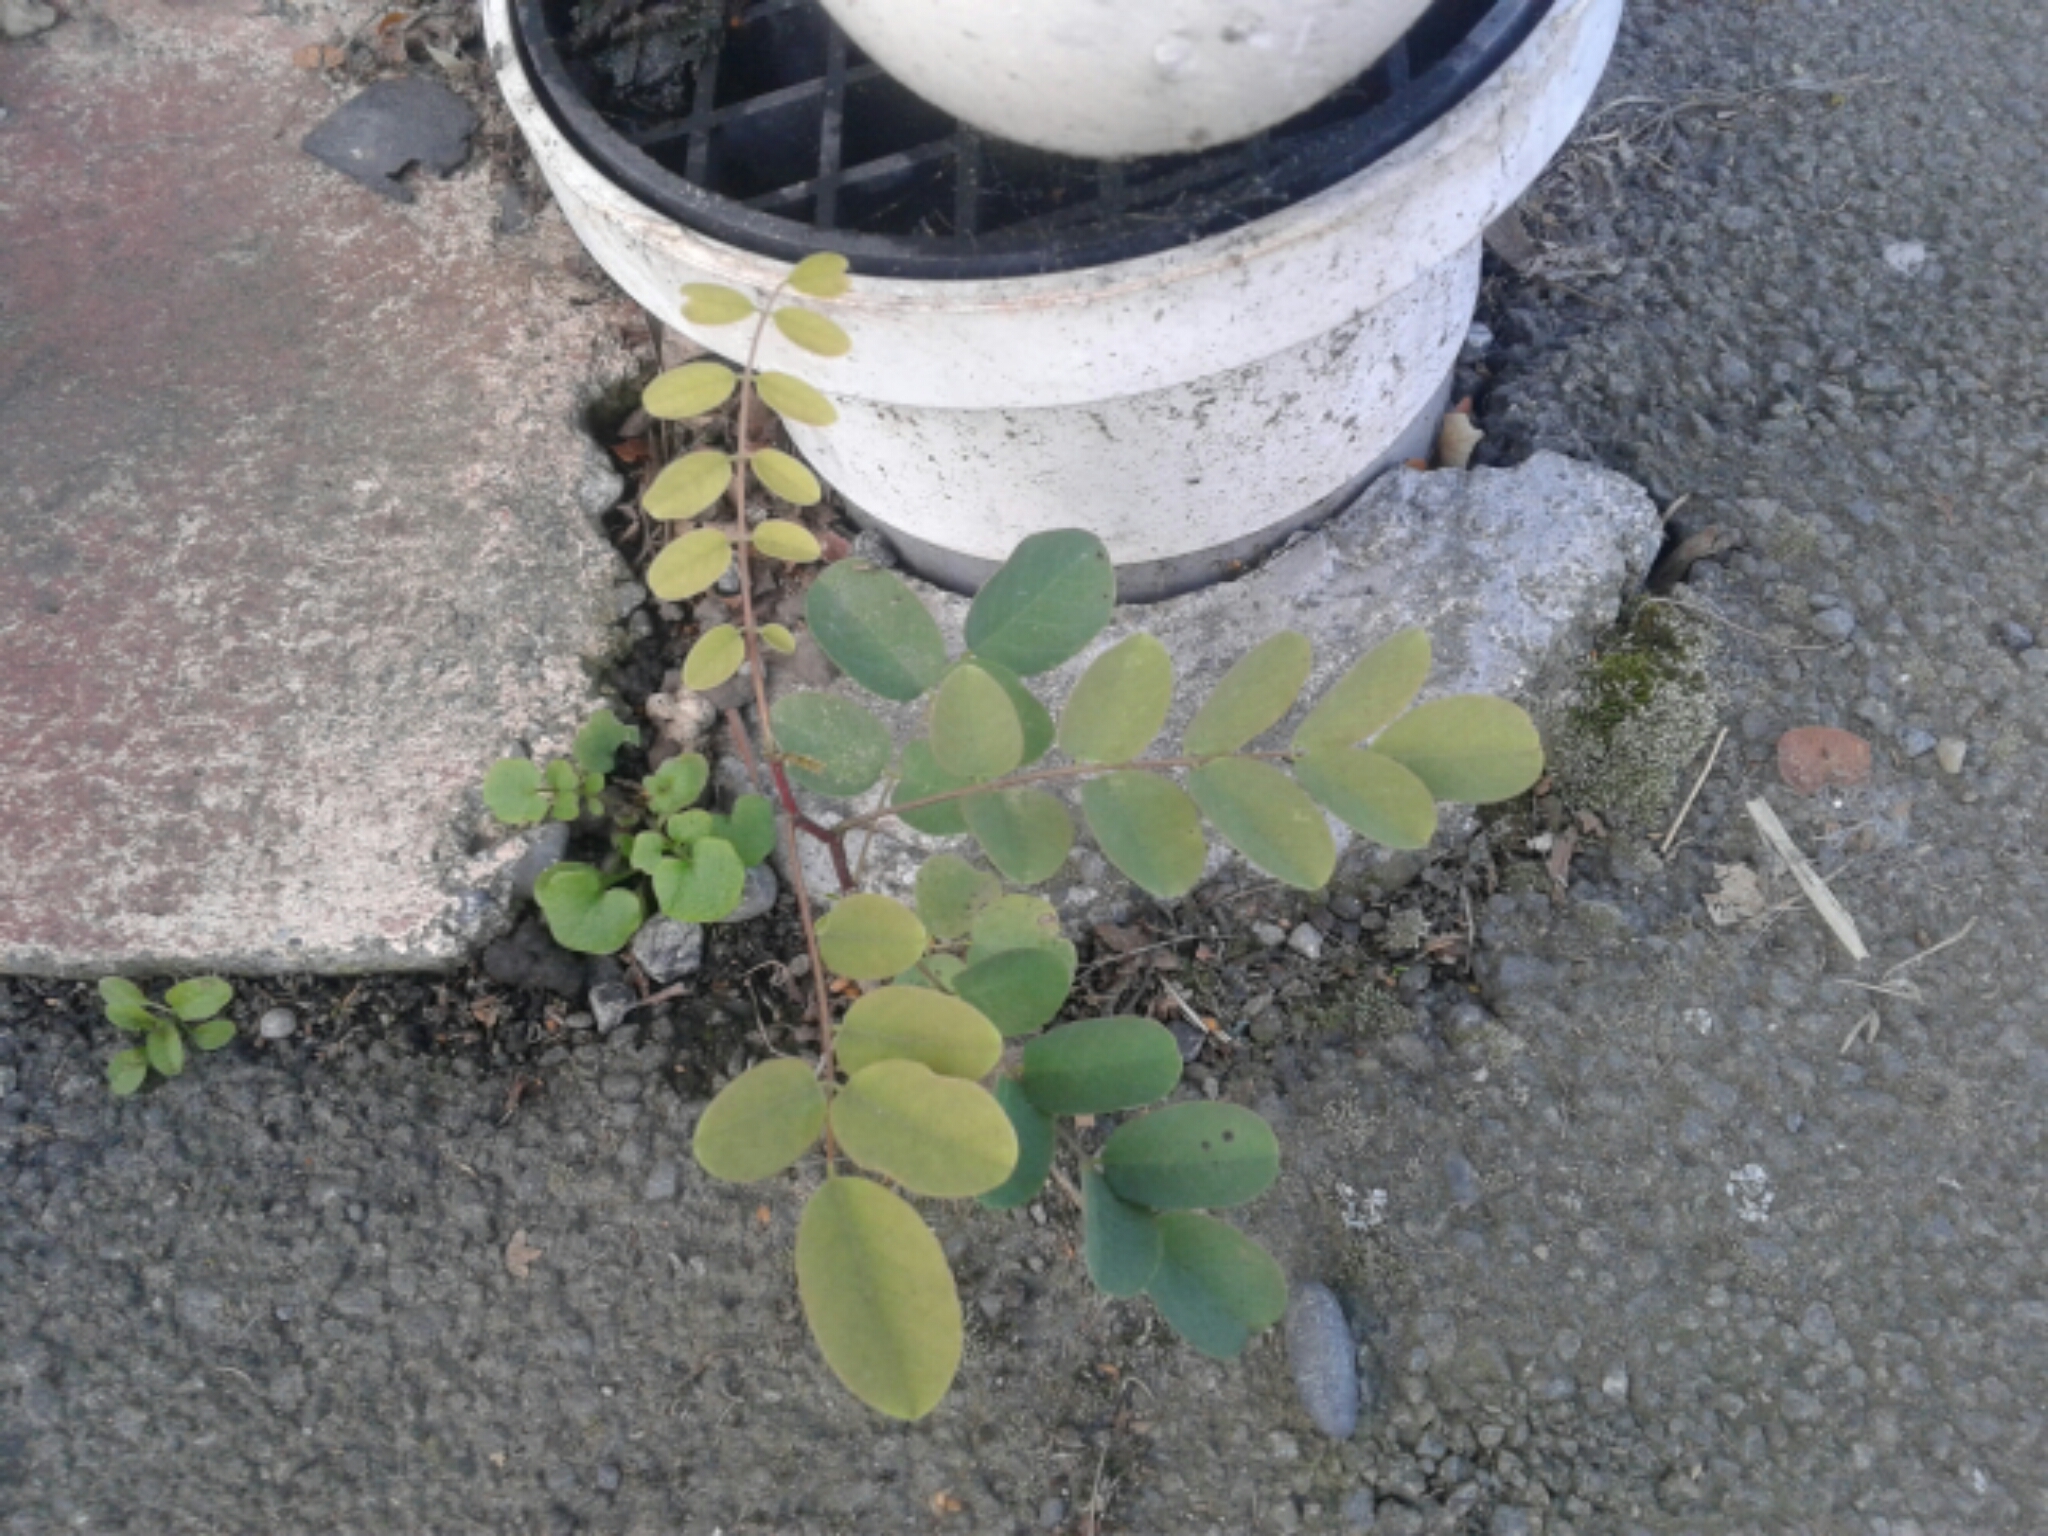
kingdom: Plantae
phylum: Tracheophyta
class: Magnoliopsida
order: Fabales
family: Fabaceae
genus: Robinia
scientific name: Robinia pseudoacacia
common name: Black locust
